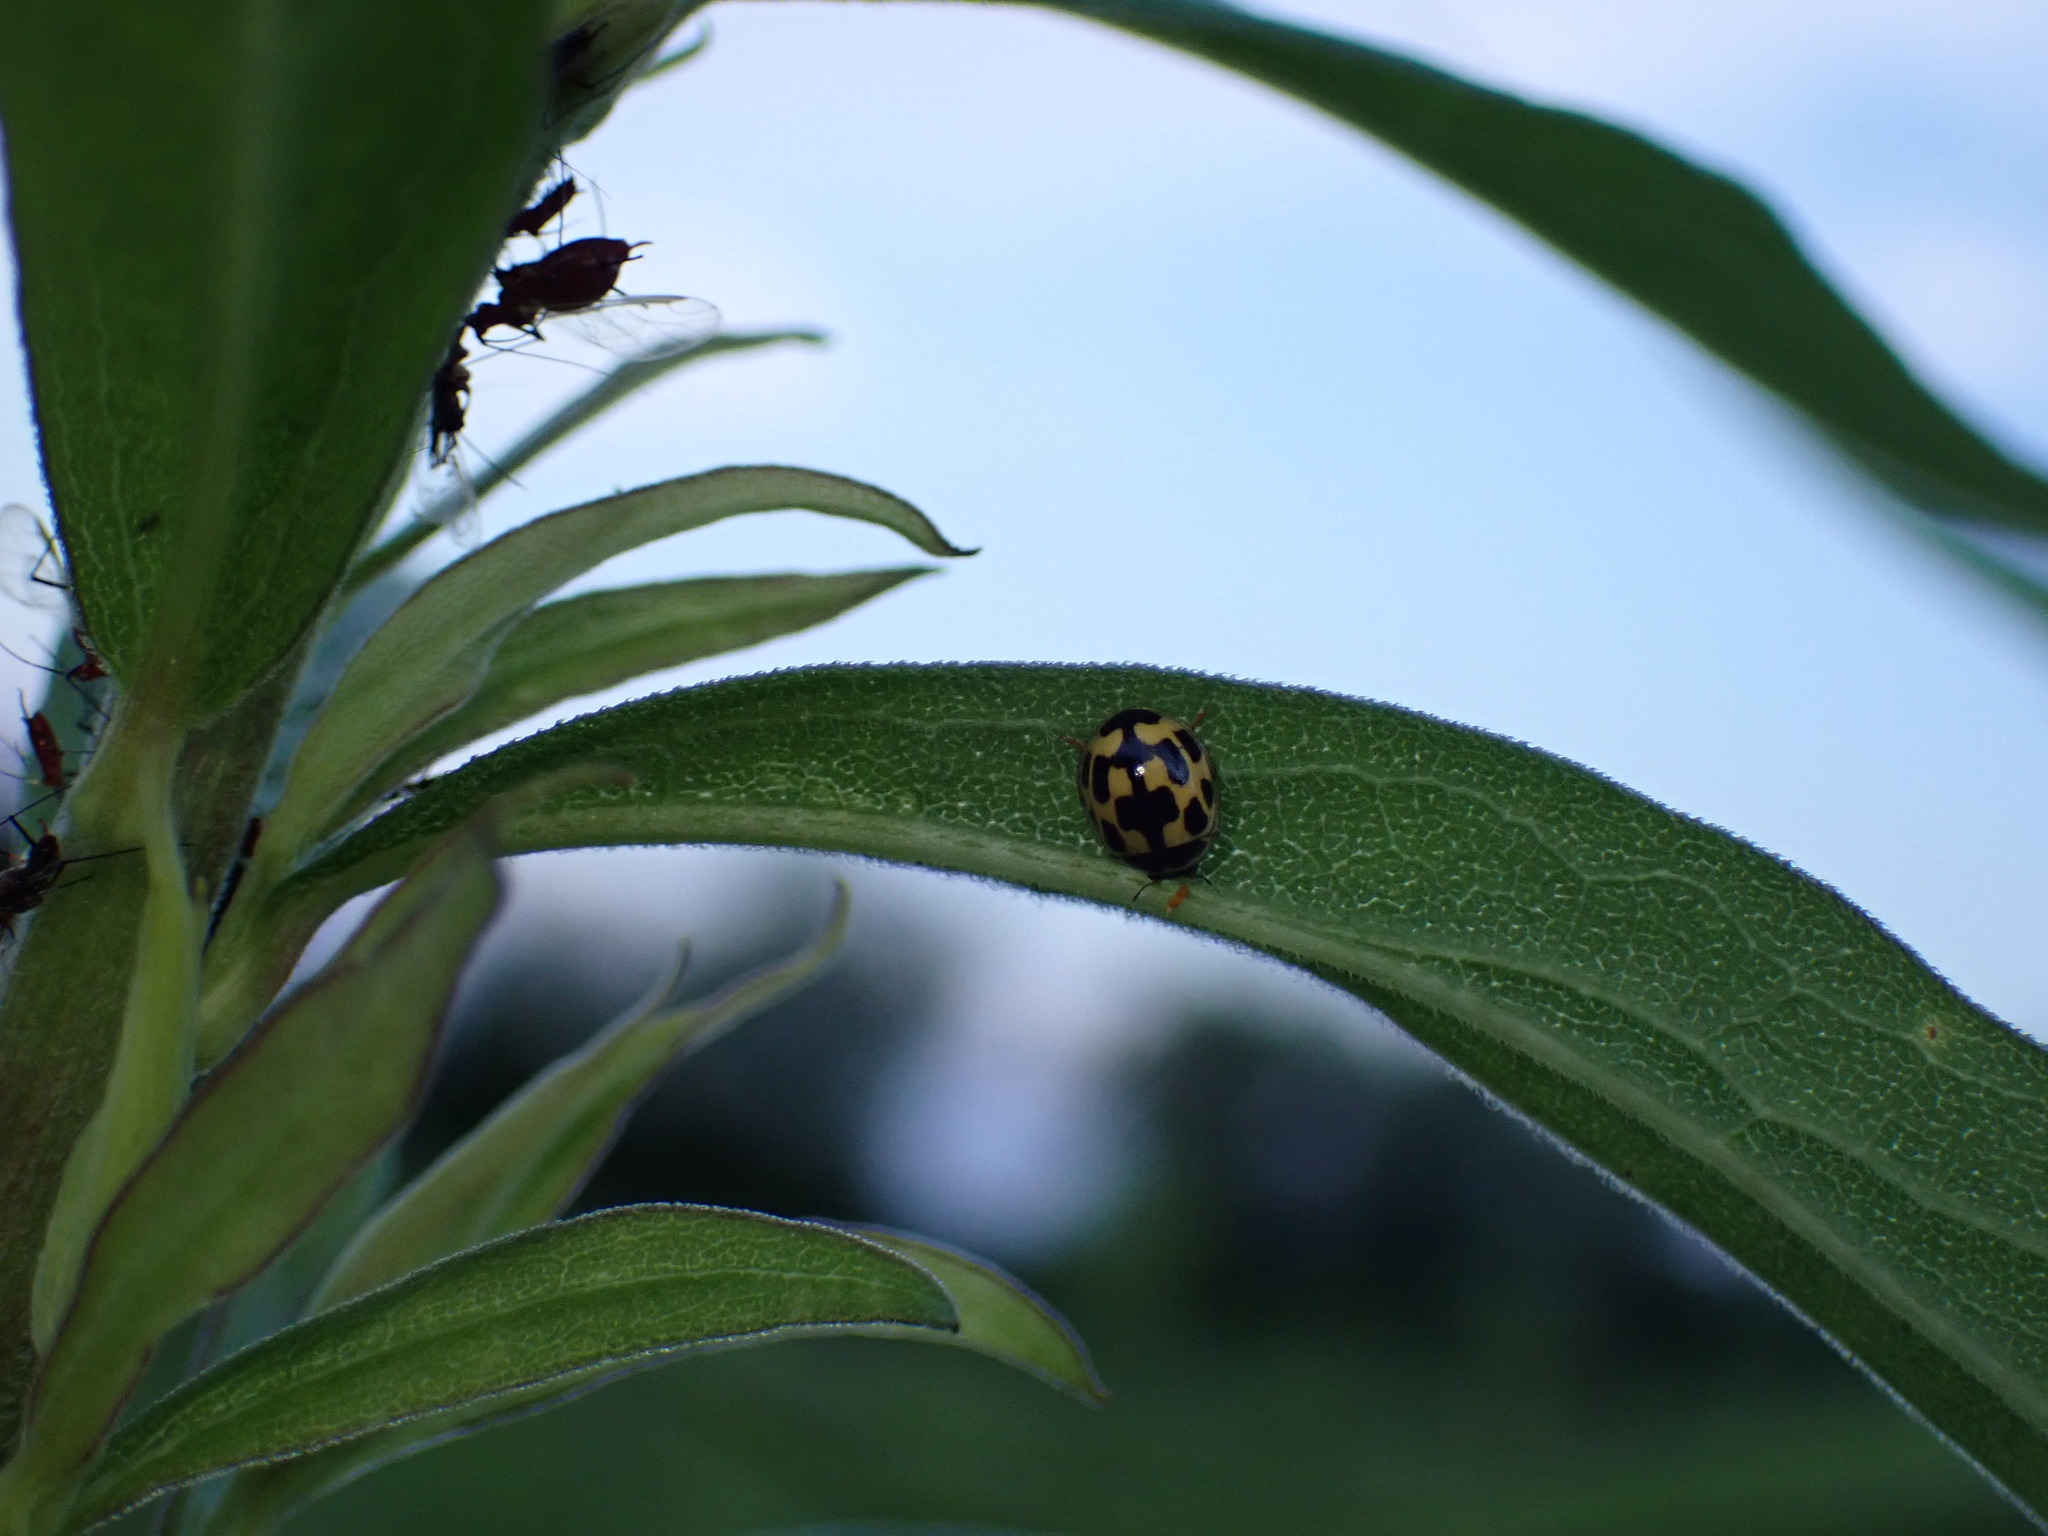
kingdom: Animalia
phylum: Arthropoda
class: Insecta
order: Coleoptera
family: Coccinellidae
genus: Propylaea
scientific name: Propylaea quatuordecimpunctata
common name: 14-spotted ladybird beetle
